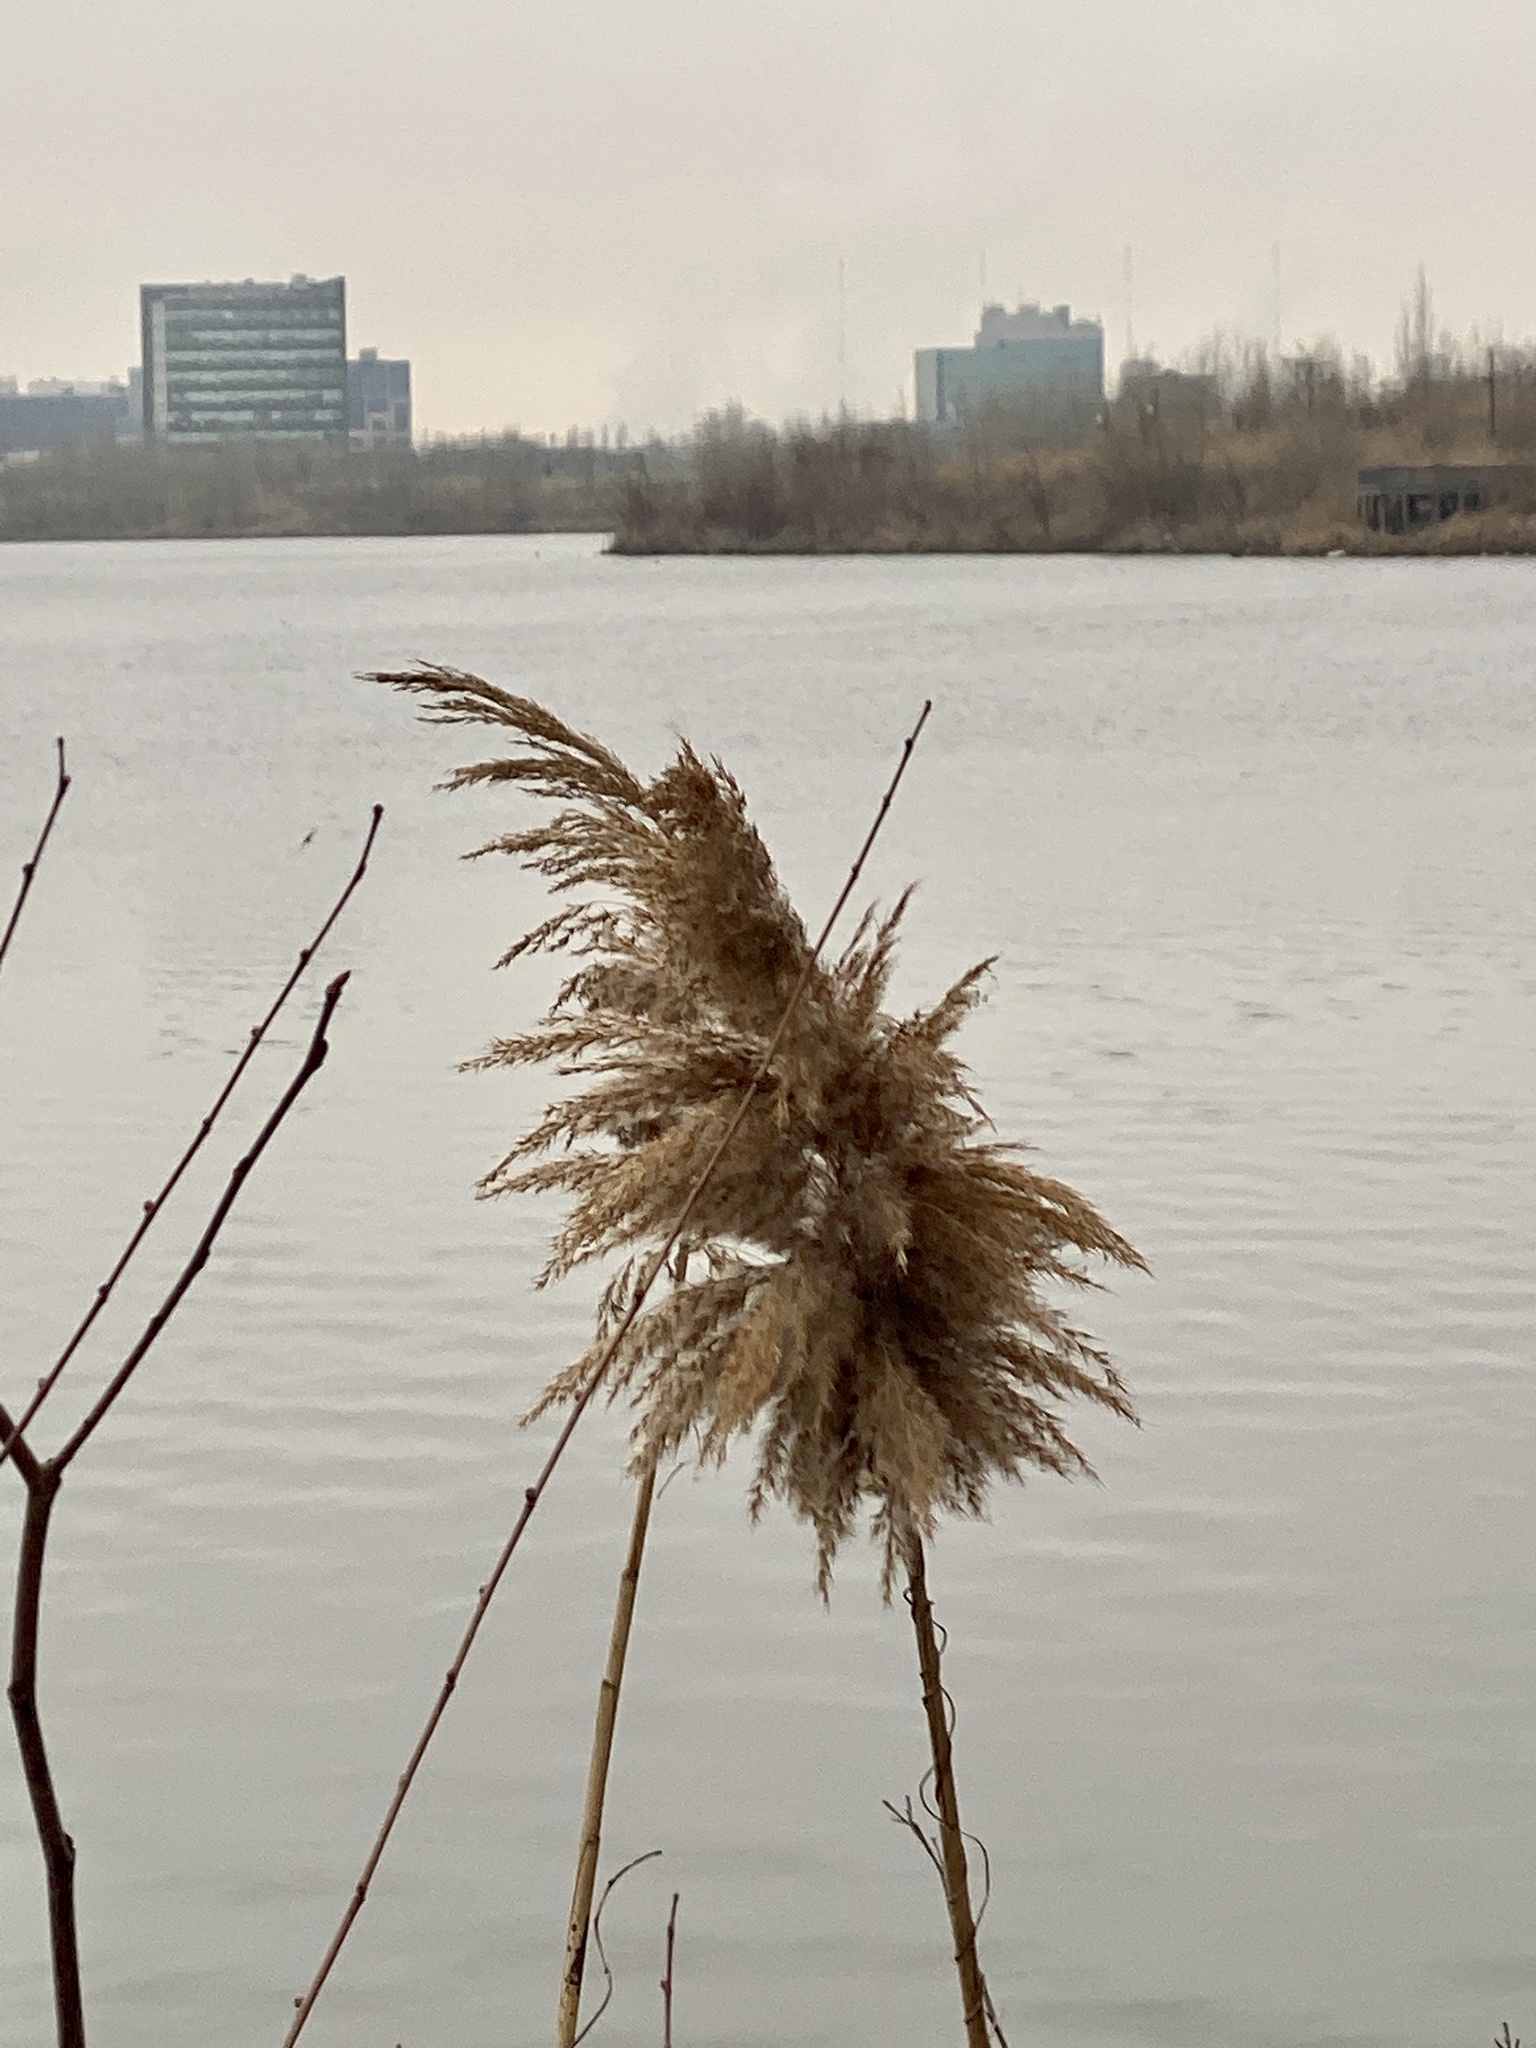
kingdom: Plantae
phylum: Tracheophyta
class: Liliopsida
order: Poales
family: Poaceae
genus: Phragmites
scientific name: Phragmites australis
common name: Common reed
